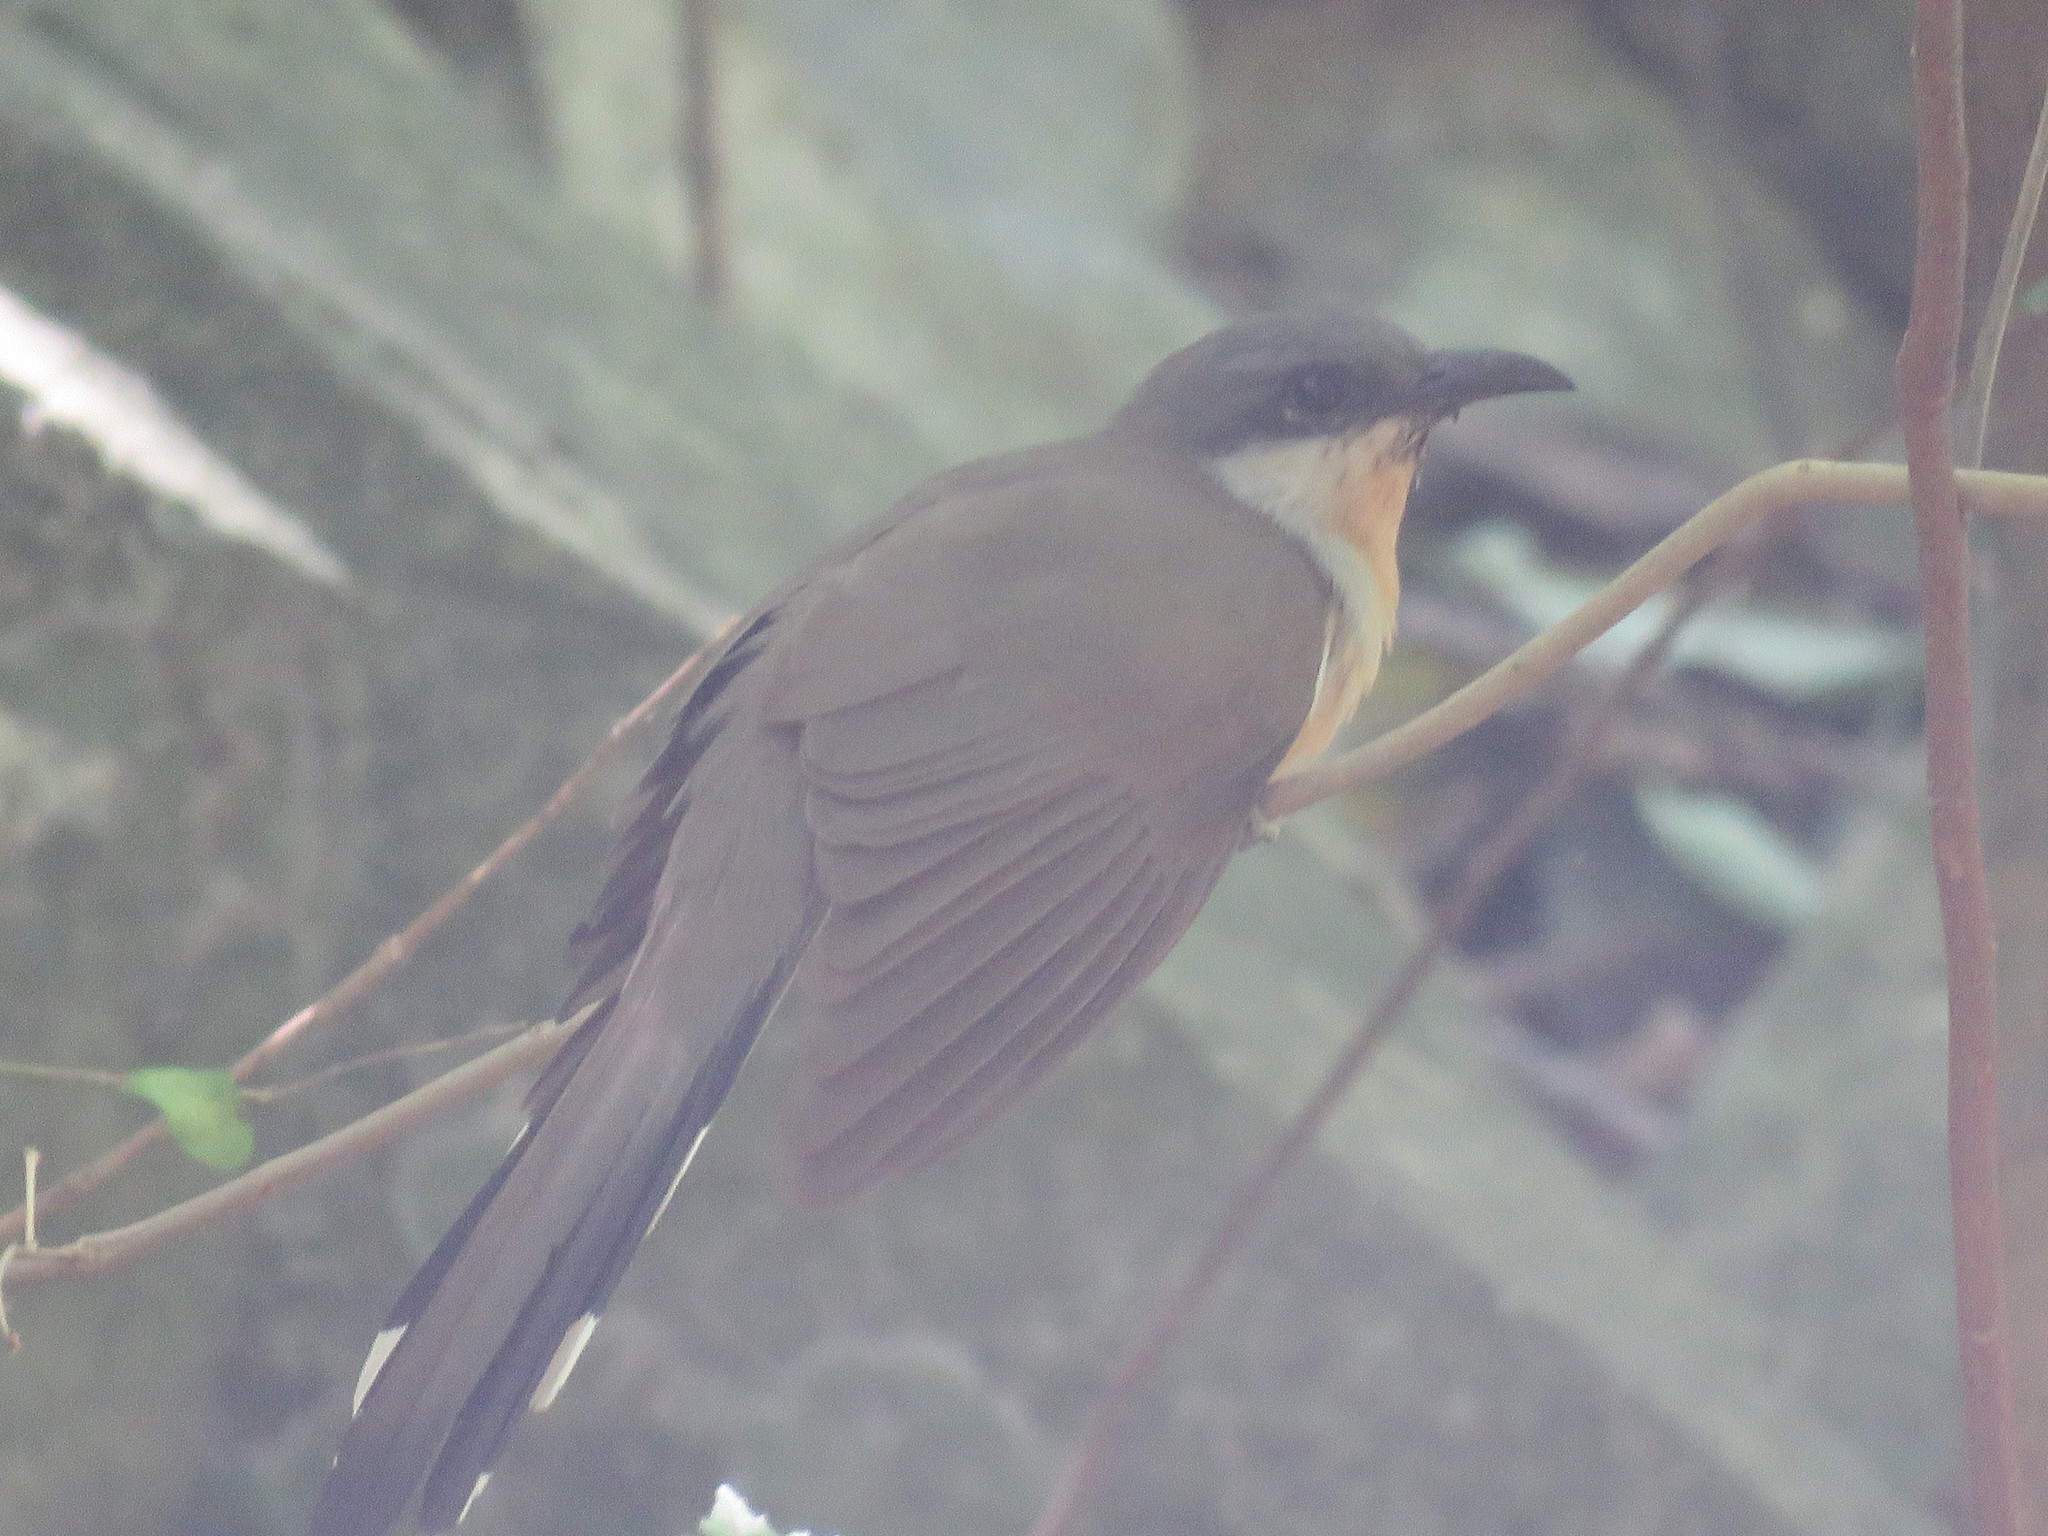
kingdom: Animalia
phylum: Chordata
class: Aves
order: Cuculiformes
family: Cuculidae
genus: Coccyzus
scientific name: Coccyzus melacoryphus
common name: Dark-billed cuckoo
